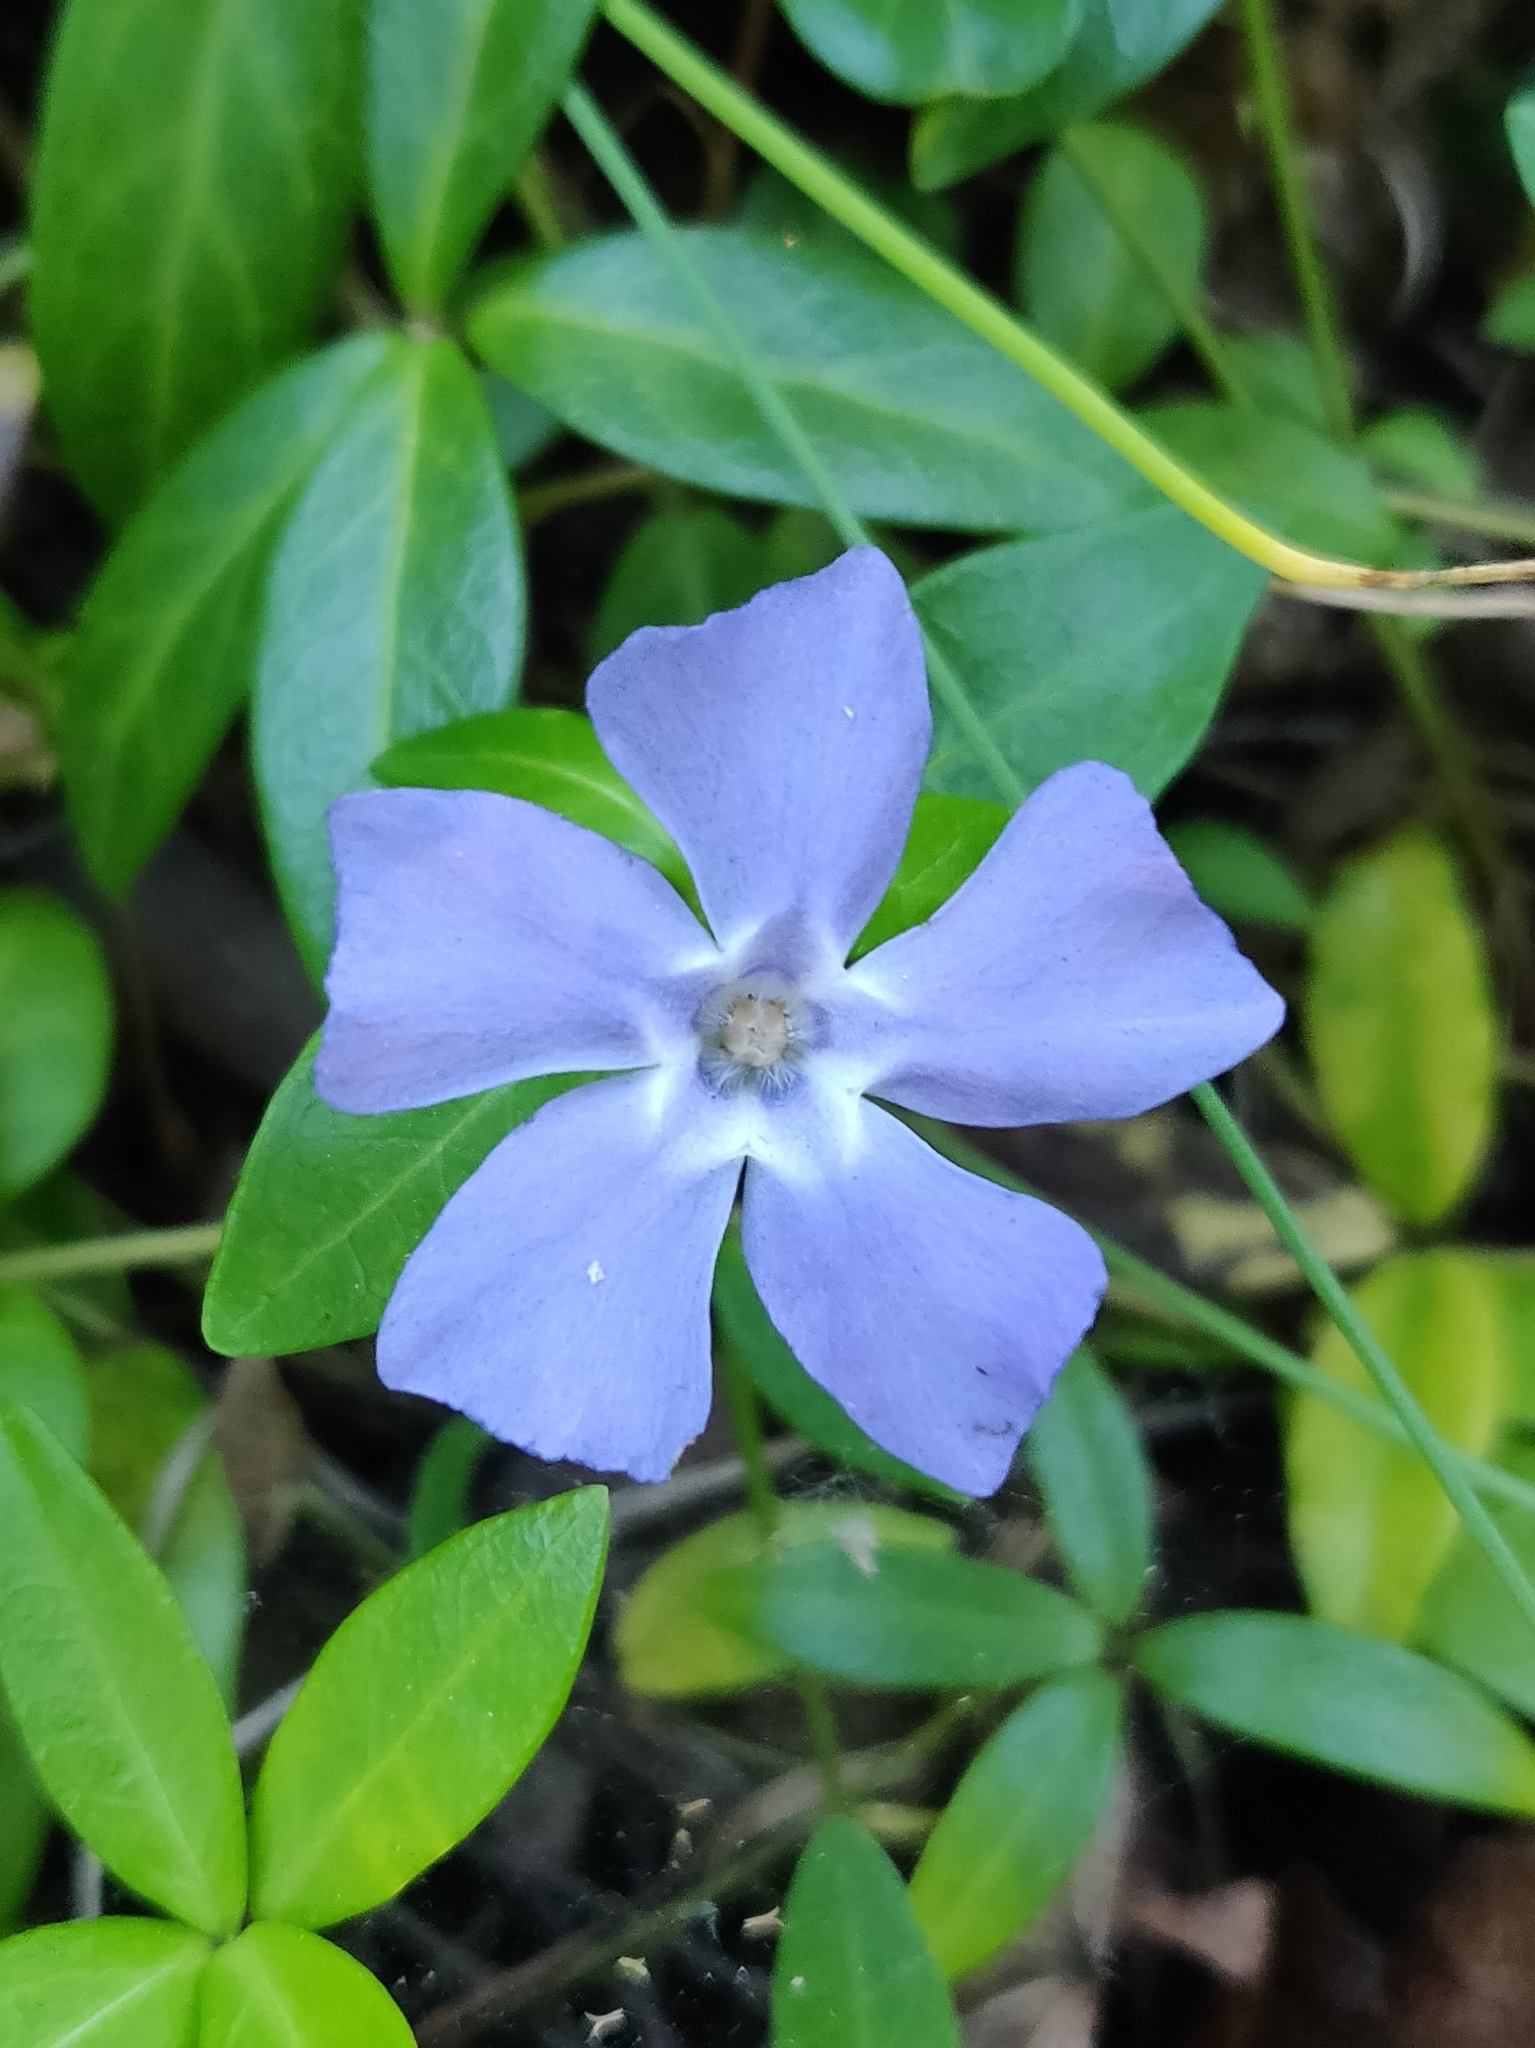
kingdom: Plantae
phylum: Tracheophyta
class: Magnoliopsida
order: Gentianales
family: Apocynaceae
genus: Vinca
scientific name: Vinca minor
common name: Lesser periwinkle
